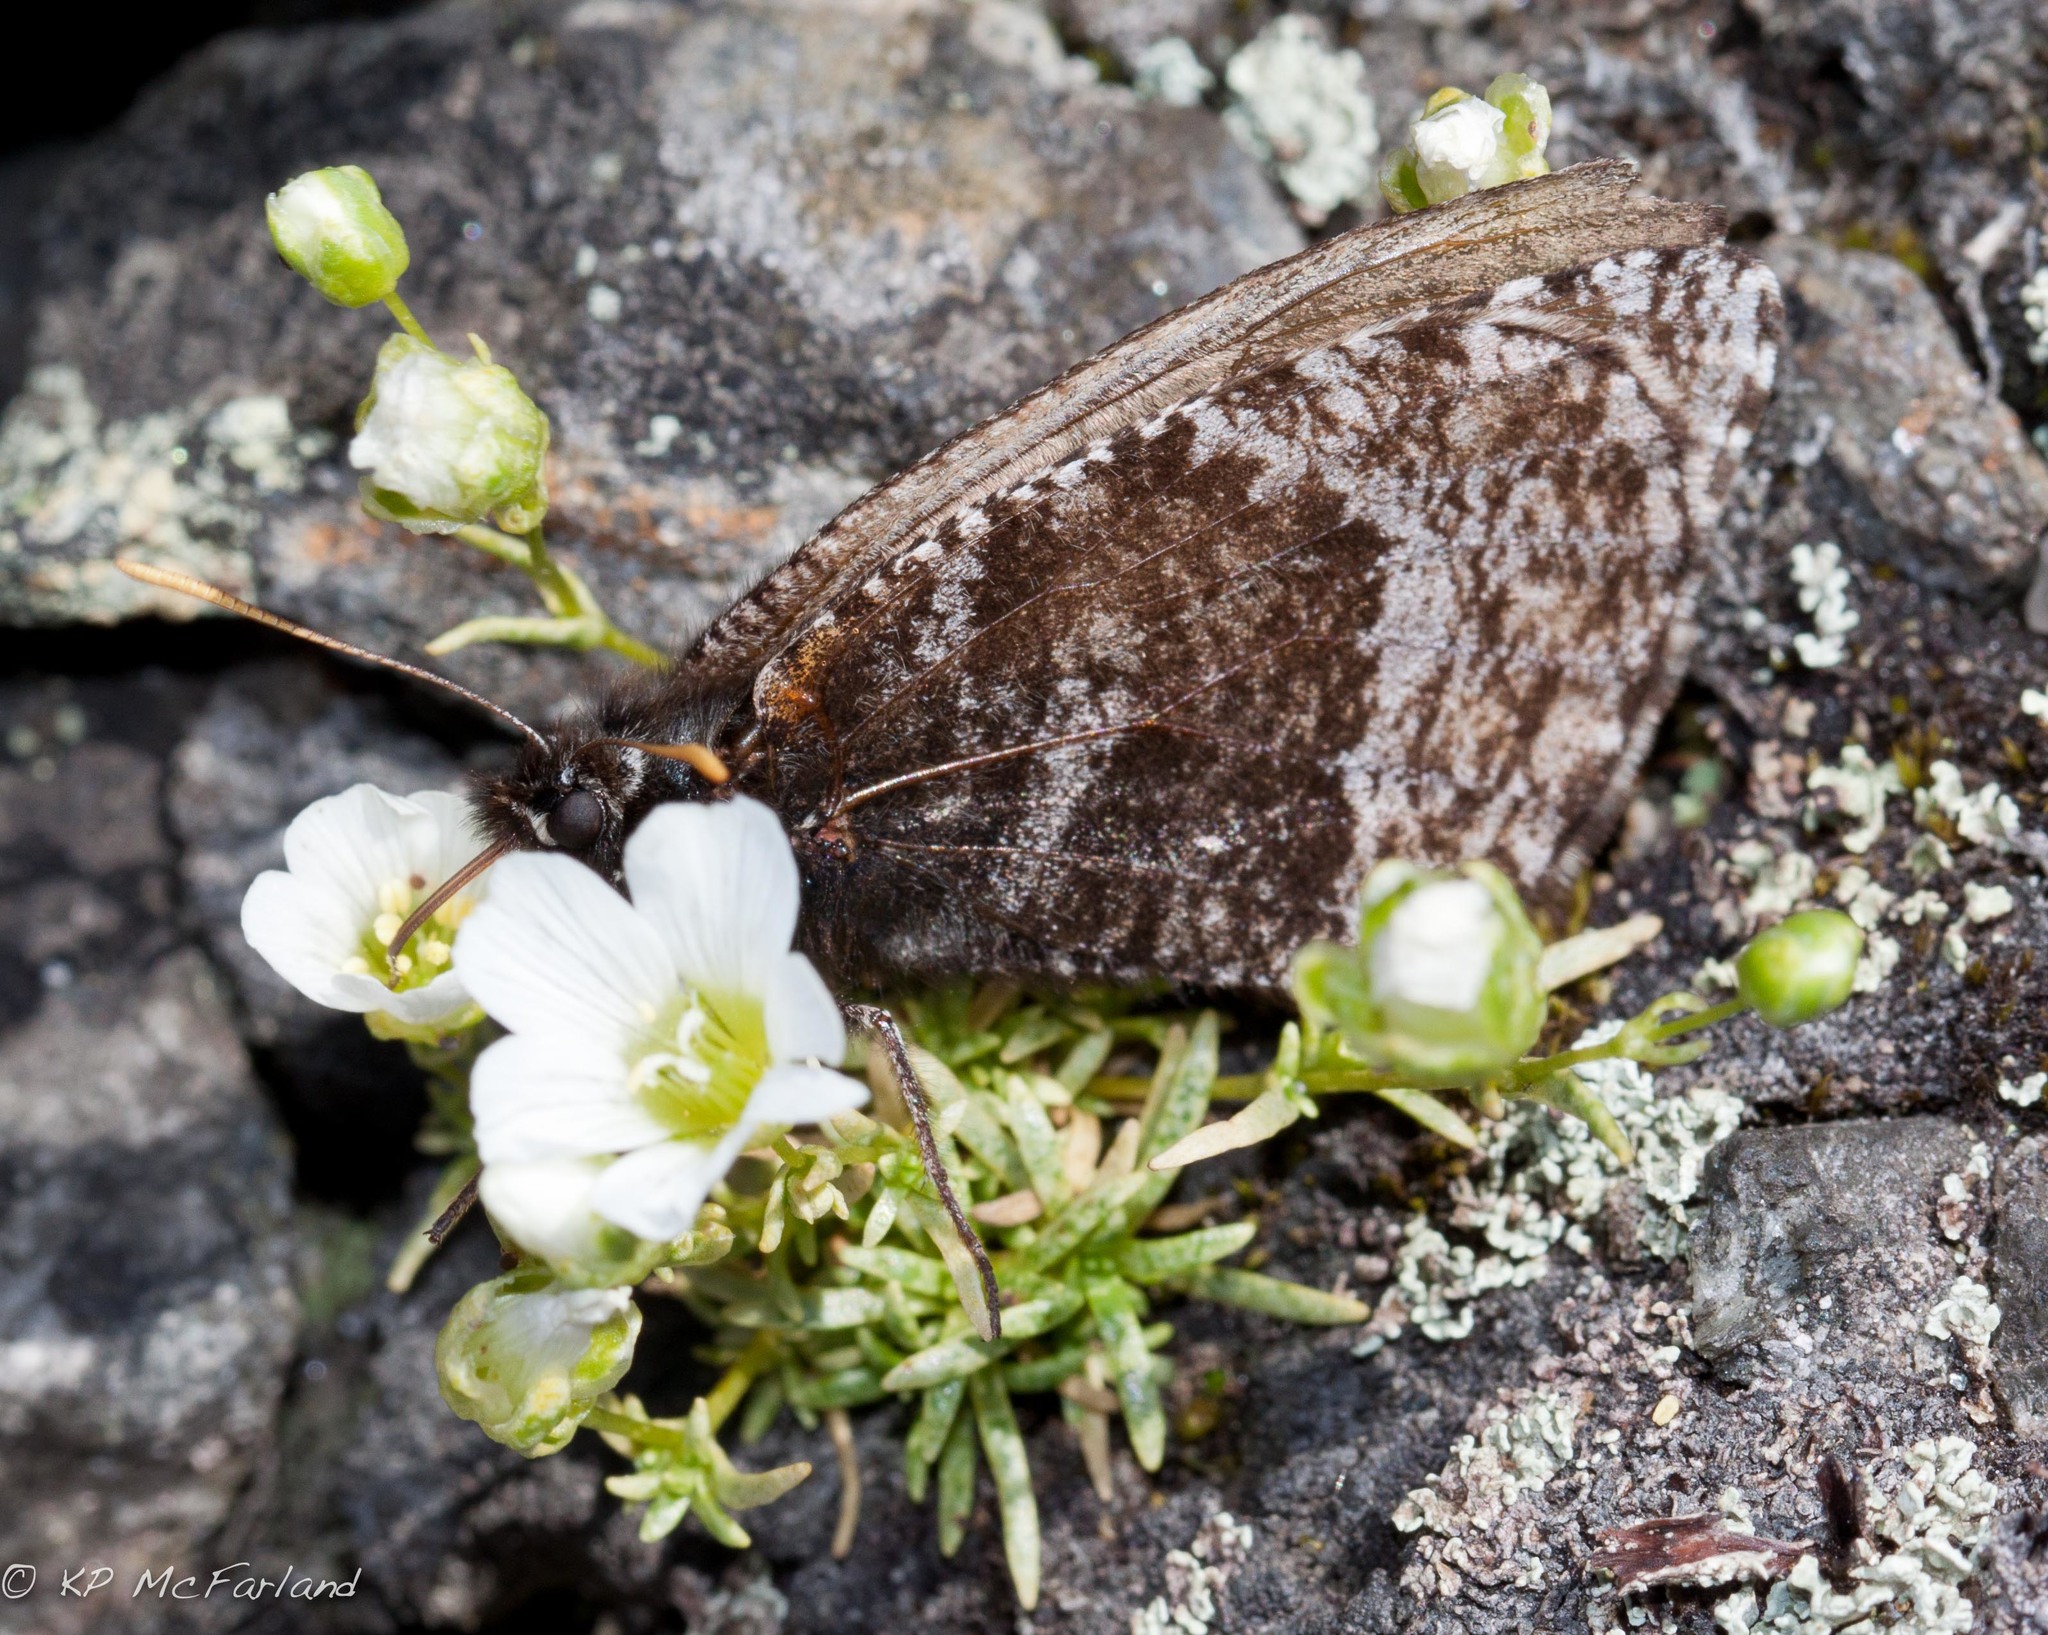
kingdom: Animalia
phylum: Arthropoda
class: Insecta
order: Lepidoptera
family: Nymphalidae
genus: Oeneis
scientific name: Oeneis semidea
